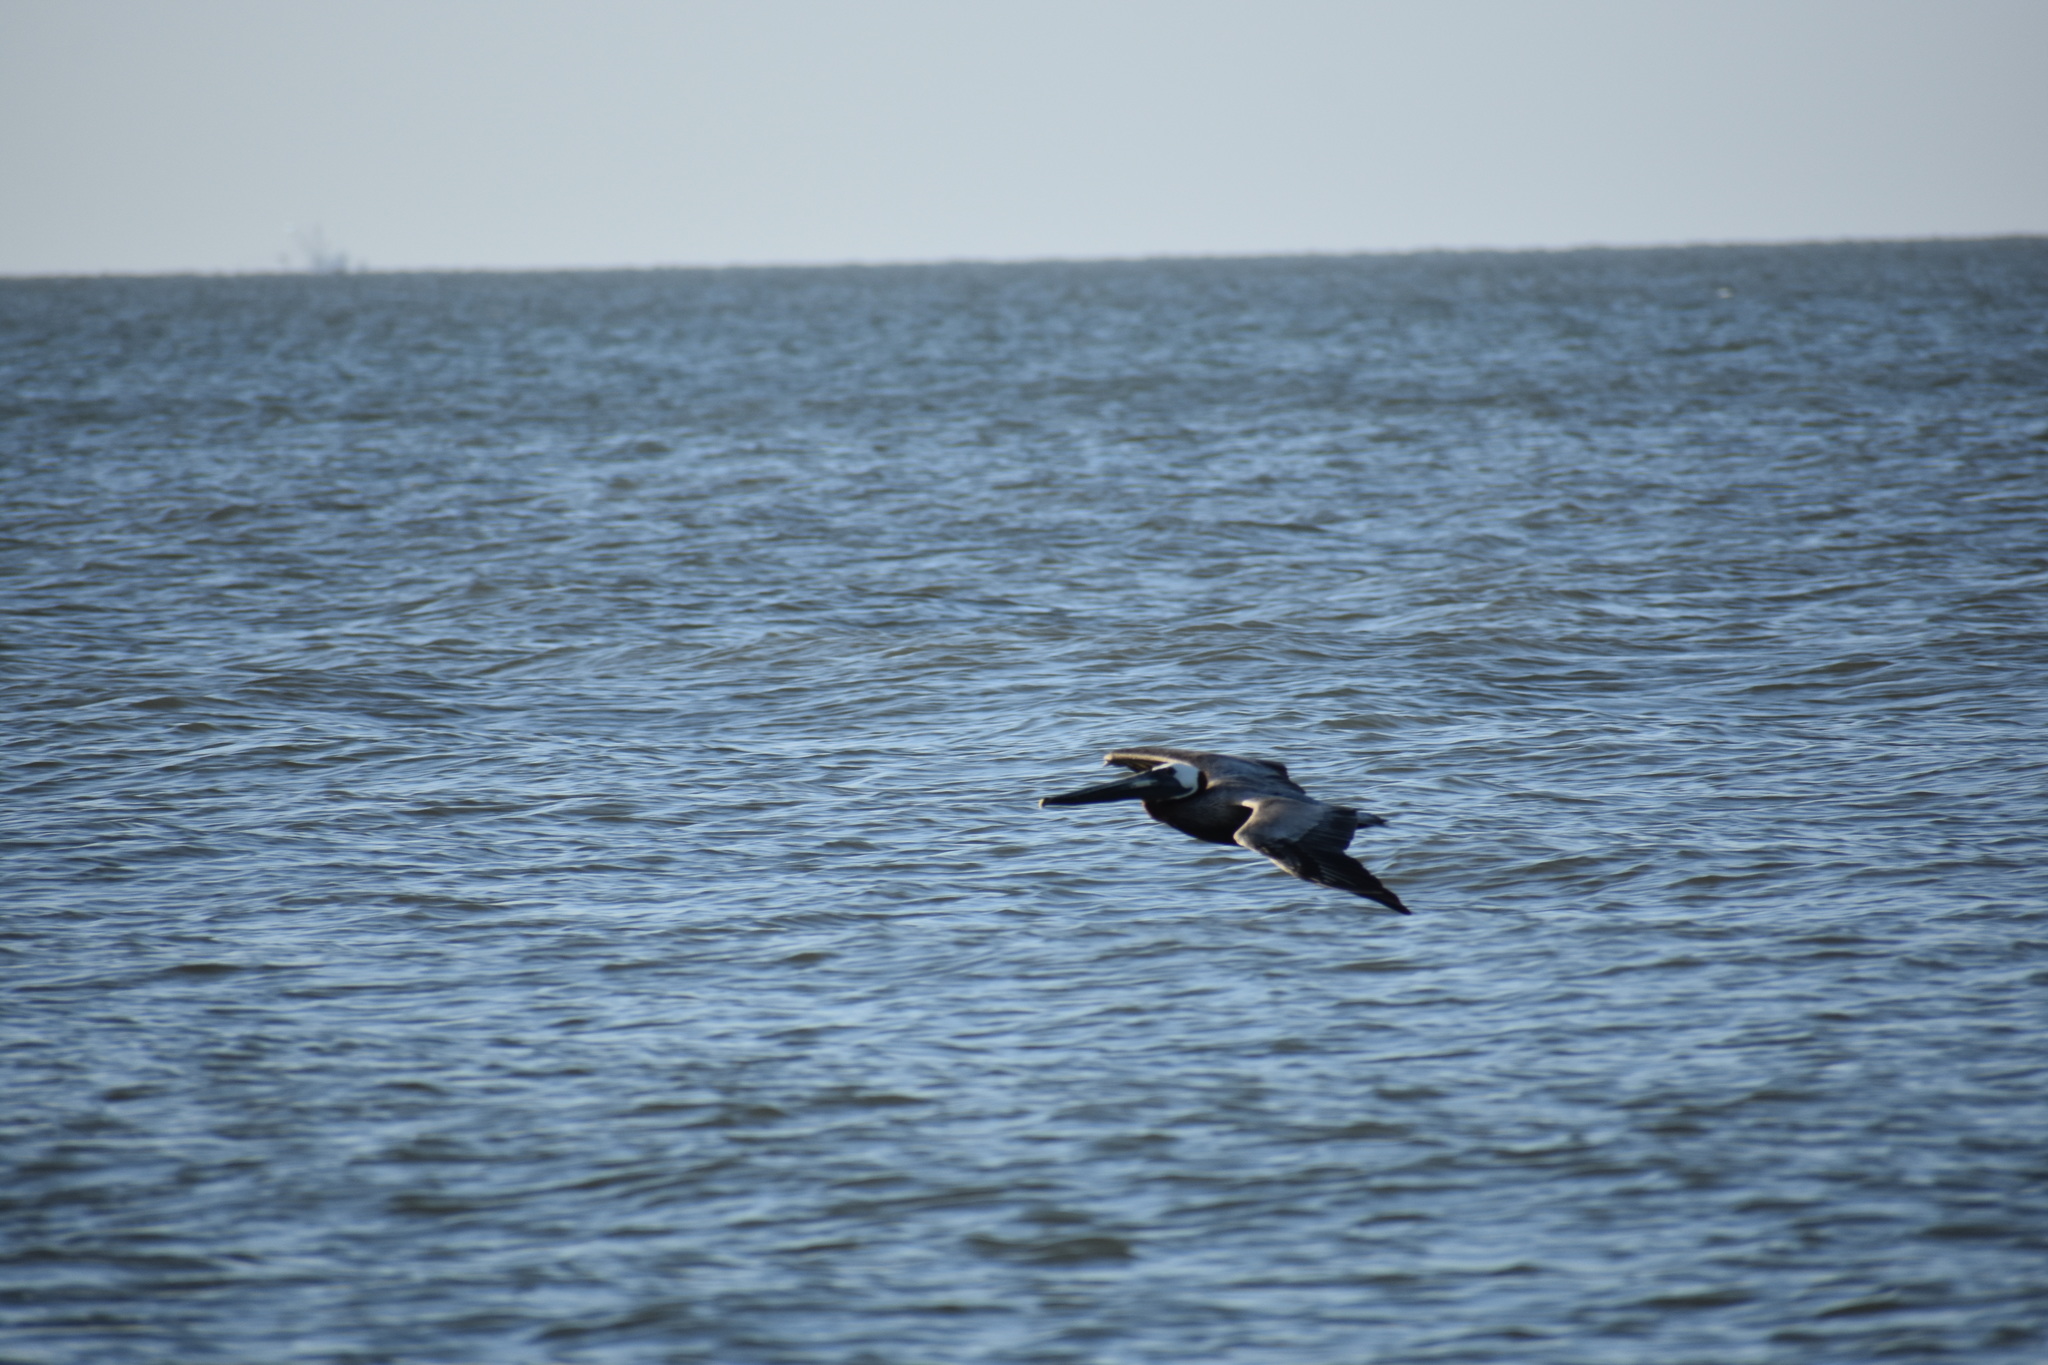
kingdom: Animalia
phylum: Chordata
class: Aves
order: Pelecaniformes
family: Pelecanidae
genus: Pelecanus
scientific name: Pelecanus occidentalis
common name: Brown pelican
